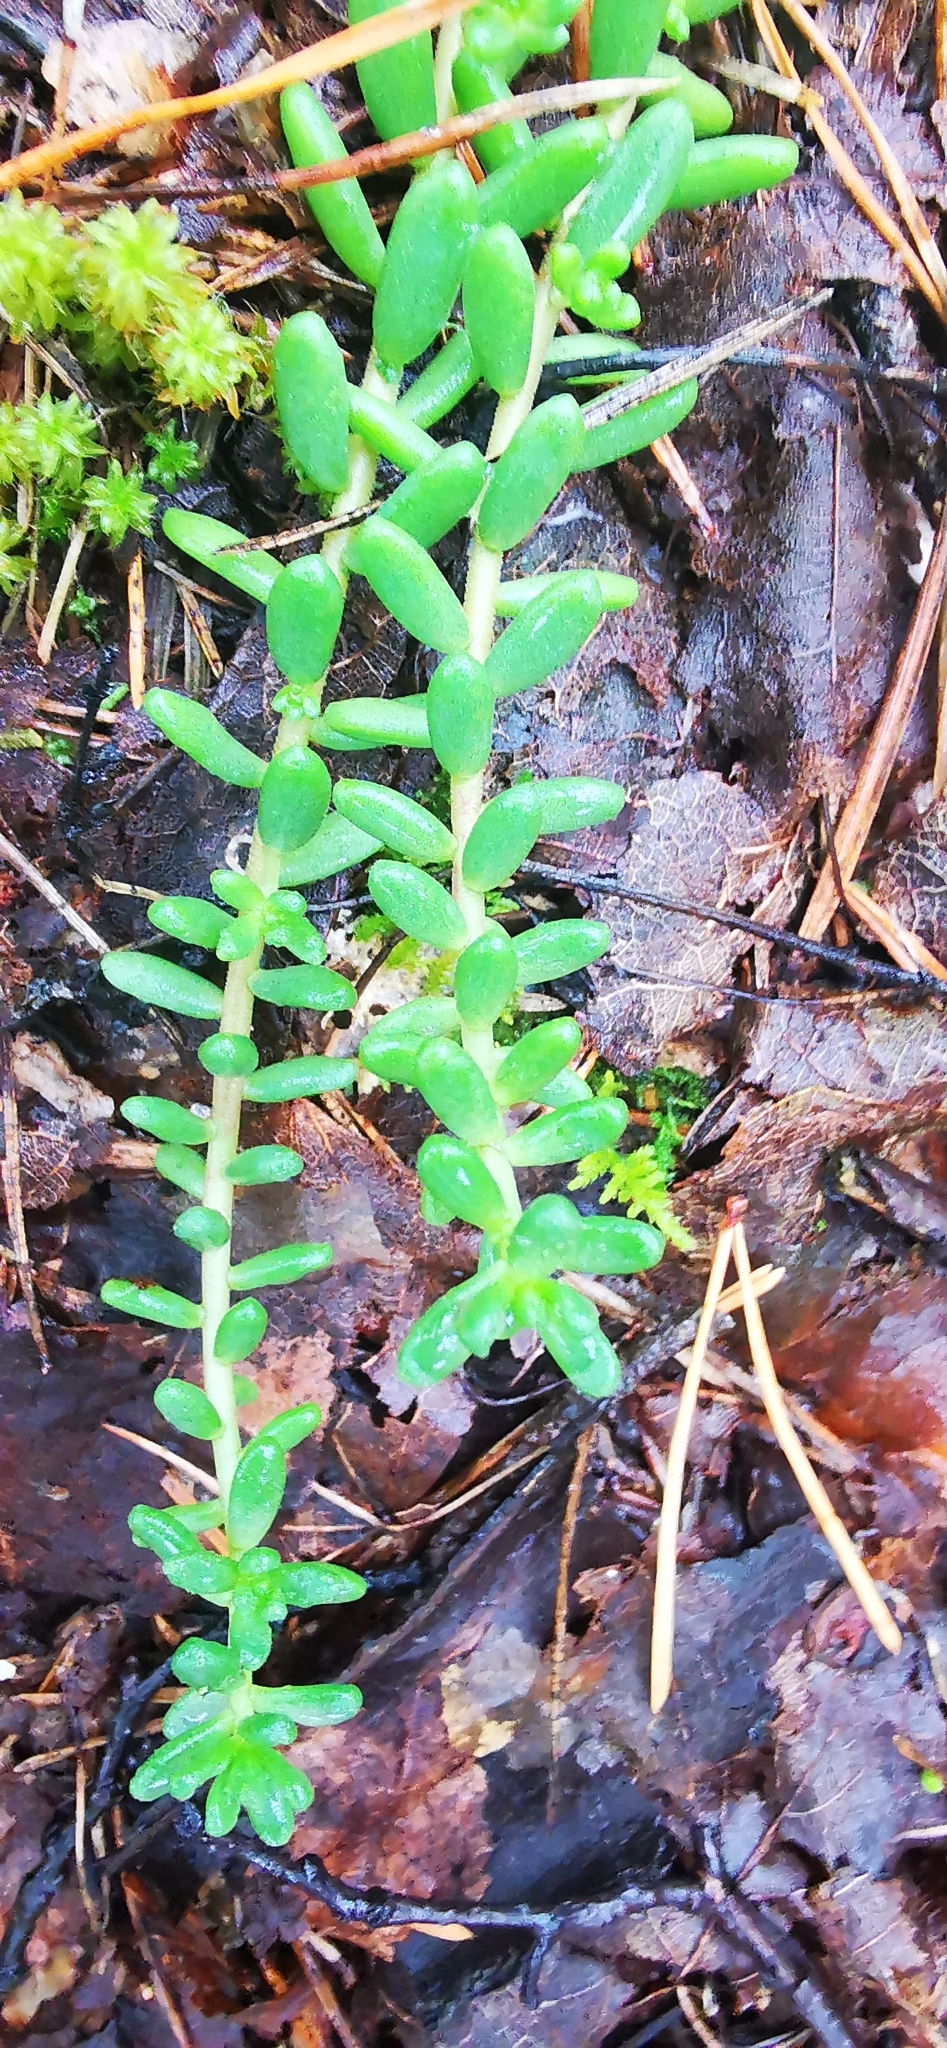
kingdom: Plantae
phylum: Tracheophyta
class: Magnoliopsida
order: Saxifragales
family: Crassulaceae
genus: Sedum
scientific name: Sedum album
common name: White stonecrop
